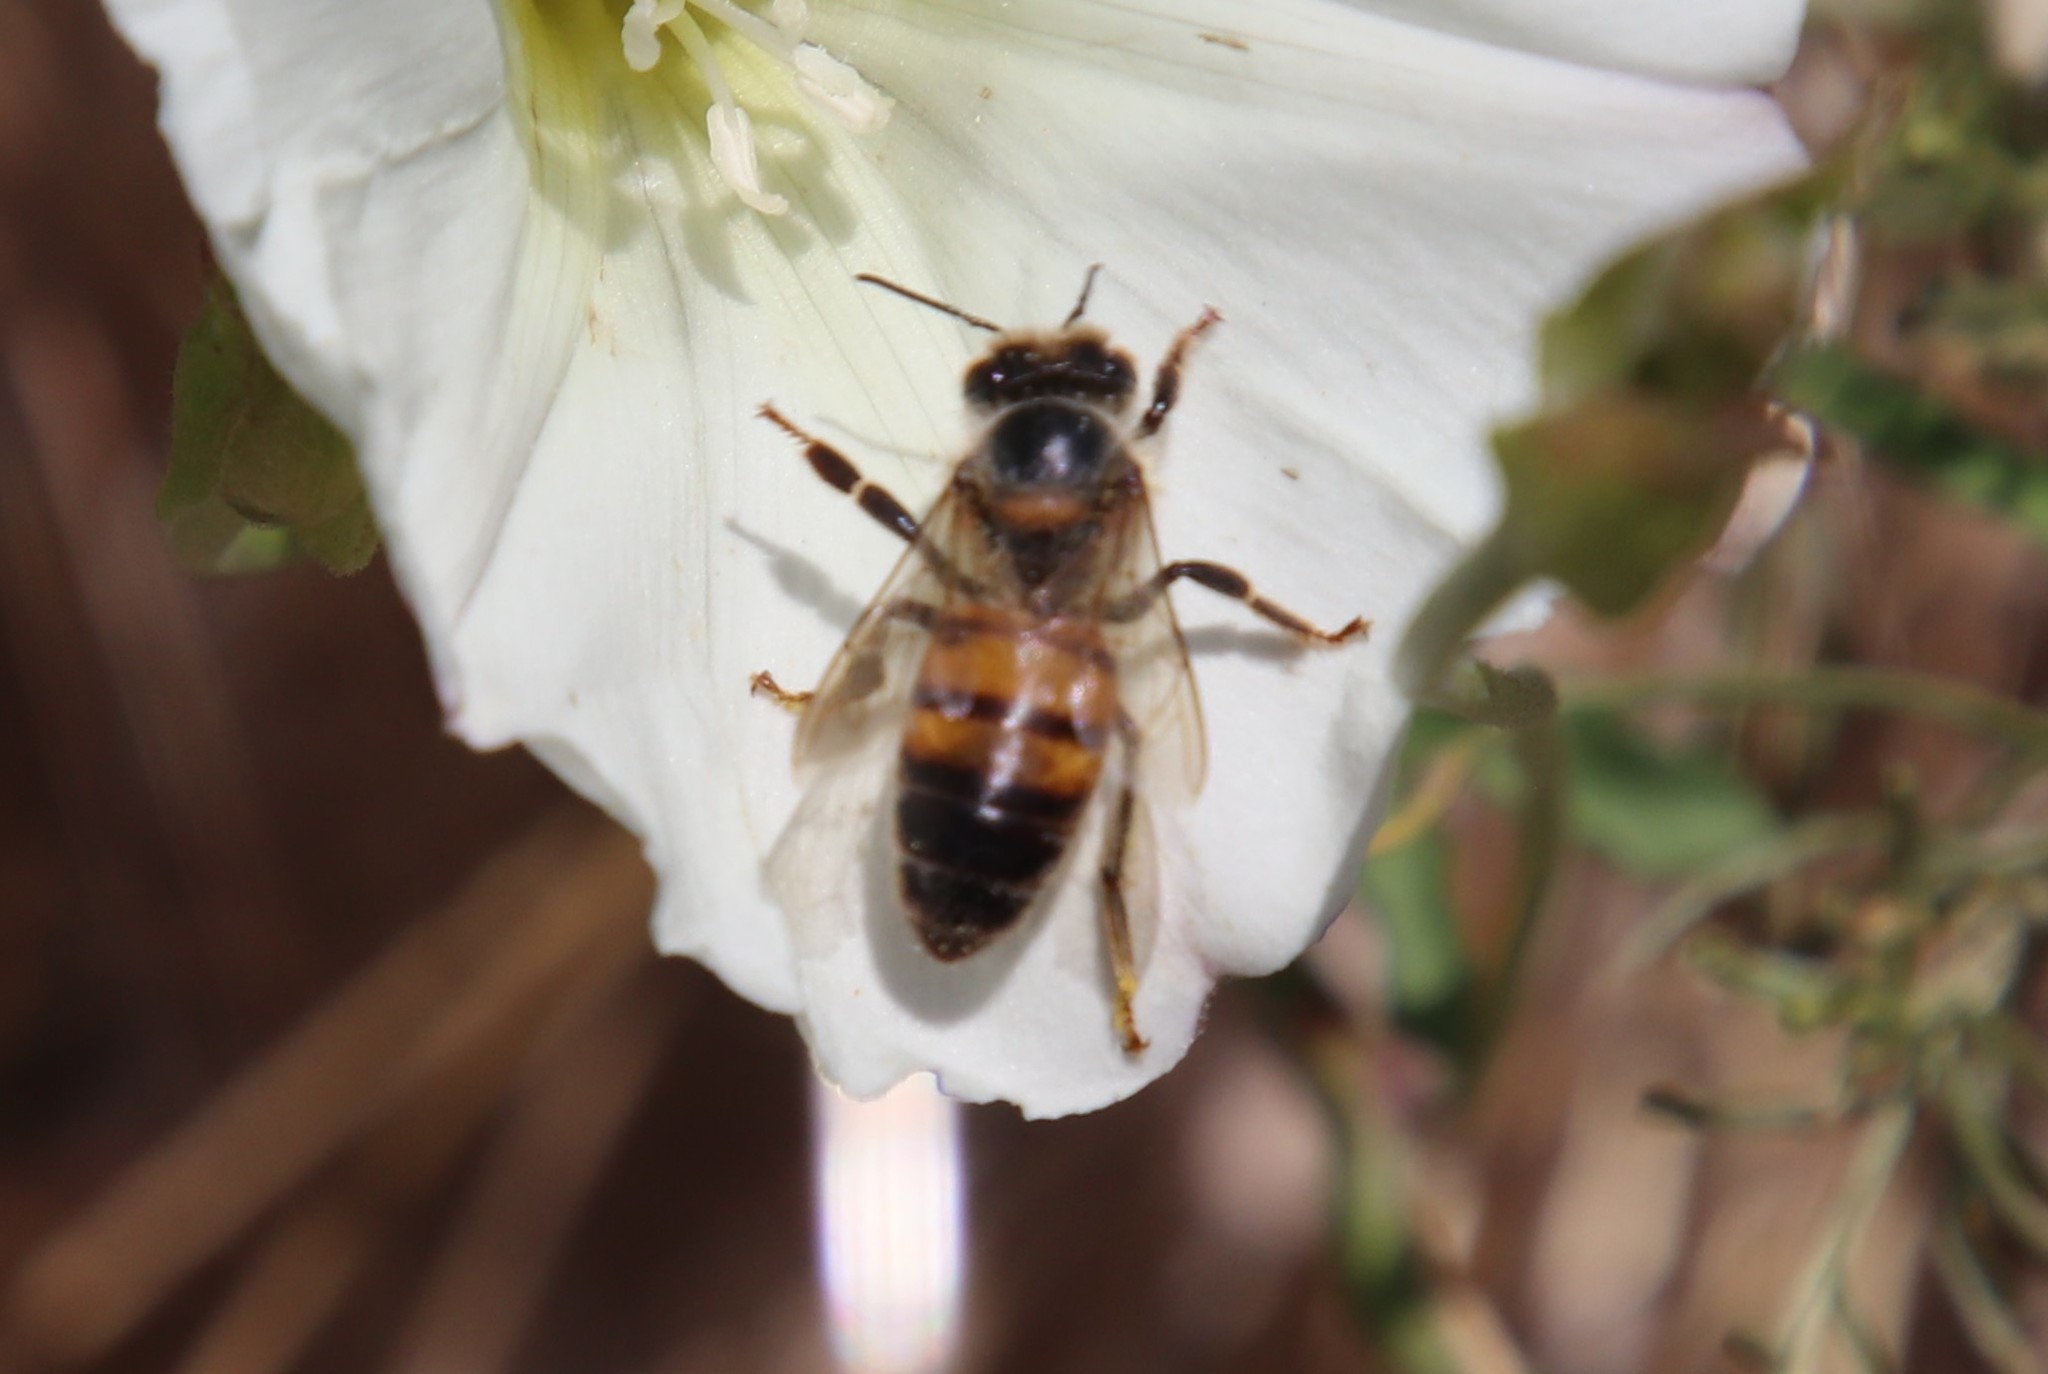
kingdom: Animalia
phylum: Arthropoda
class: Insecta
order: Hymenoptera
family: Apidae
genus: Apis
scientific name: Apis mellifera
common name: Honey bee
